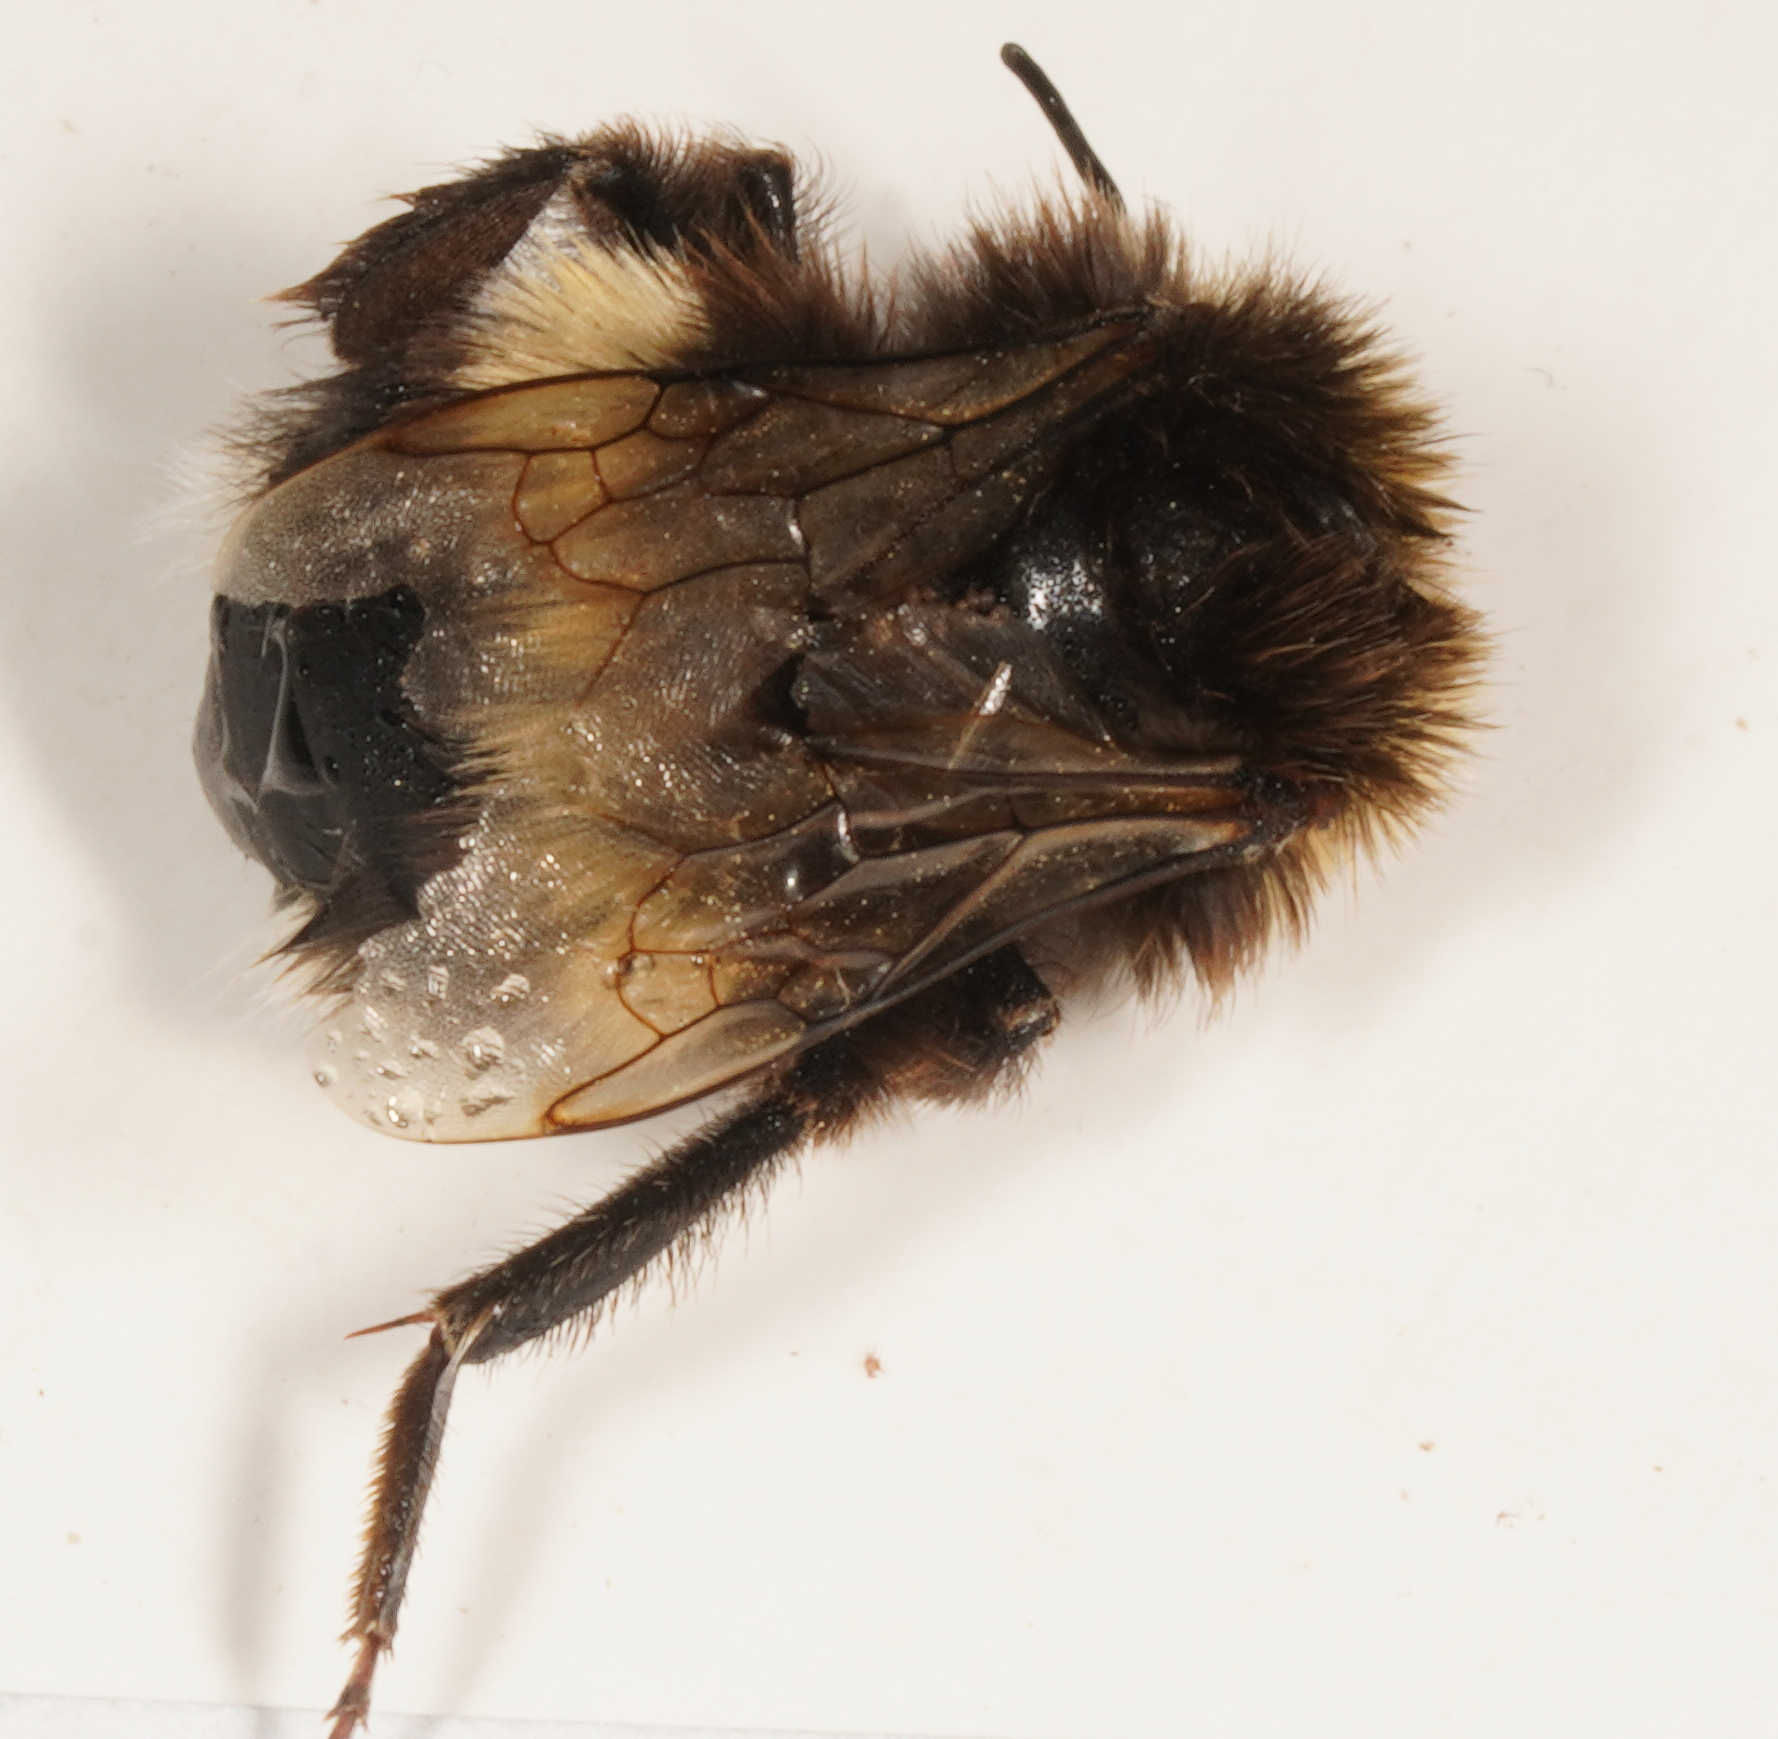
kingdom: Animalia
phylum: Arthropoda
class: Insecta
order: Hymenoptera
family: Apidae
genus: Bombus
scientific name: Bombus terrestris
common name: Buff-tailed bumblebee
